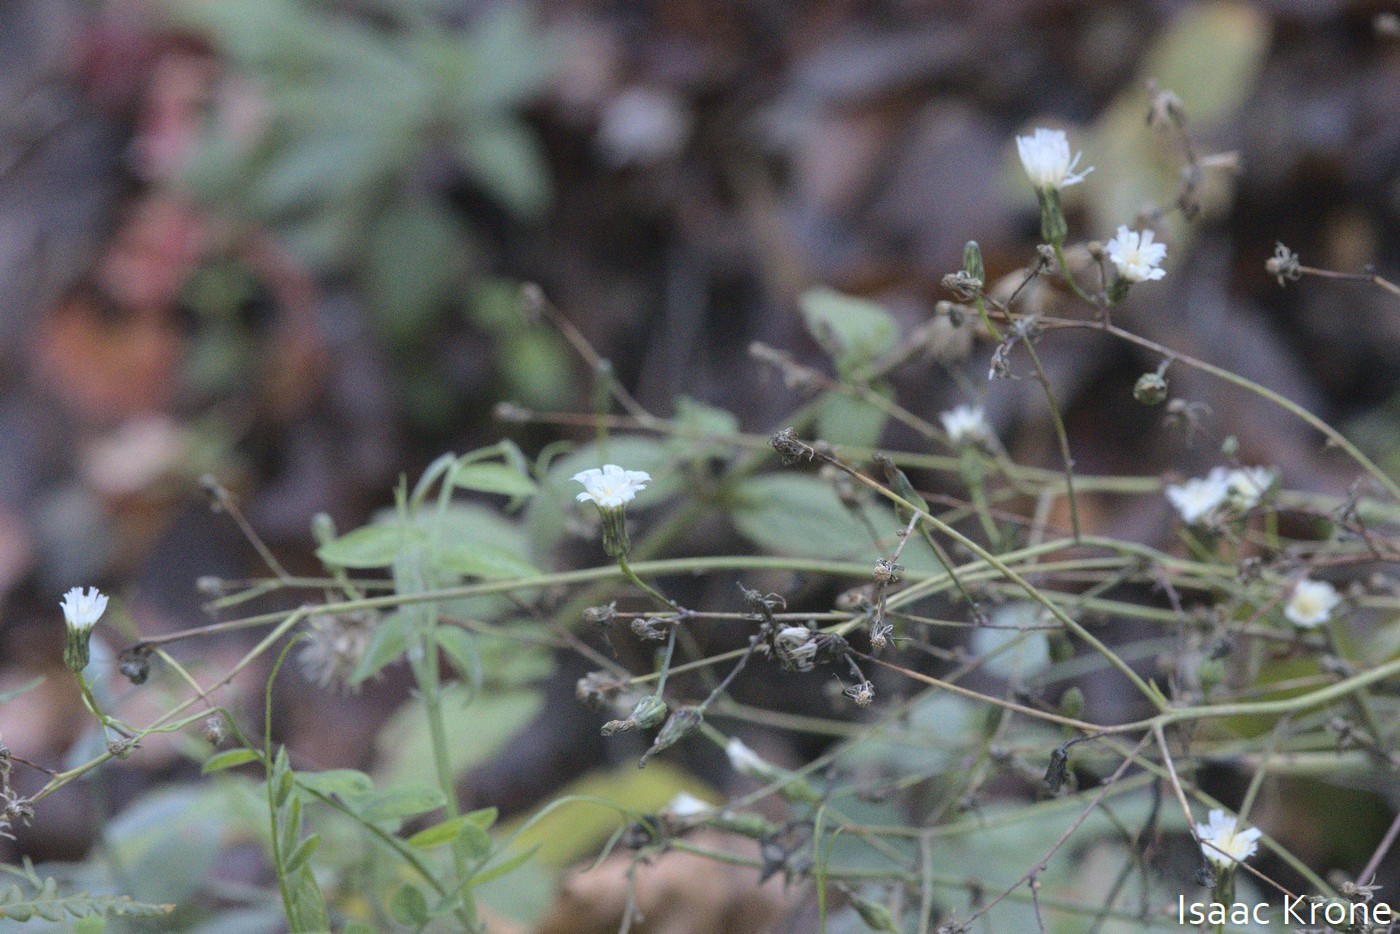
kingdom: Plantae
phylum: Tracheophyta
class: Magnoliopsida
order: Asterales
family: Asteraceae
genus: Hieracium
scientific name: Hieracium albiflorum
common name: White hawkweed
